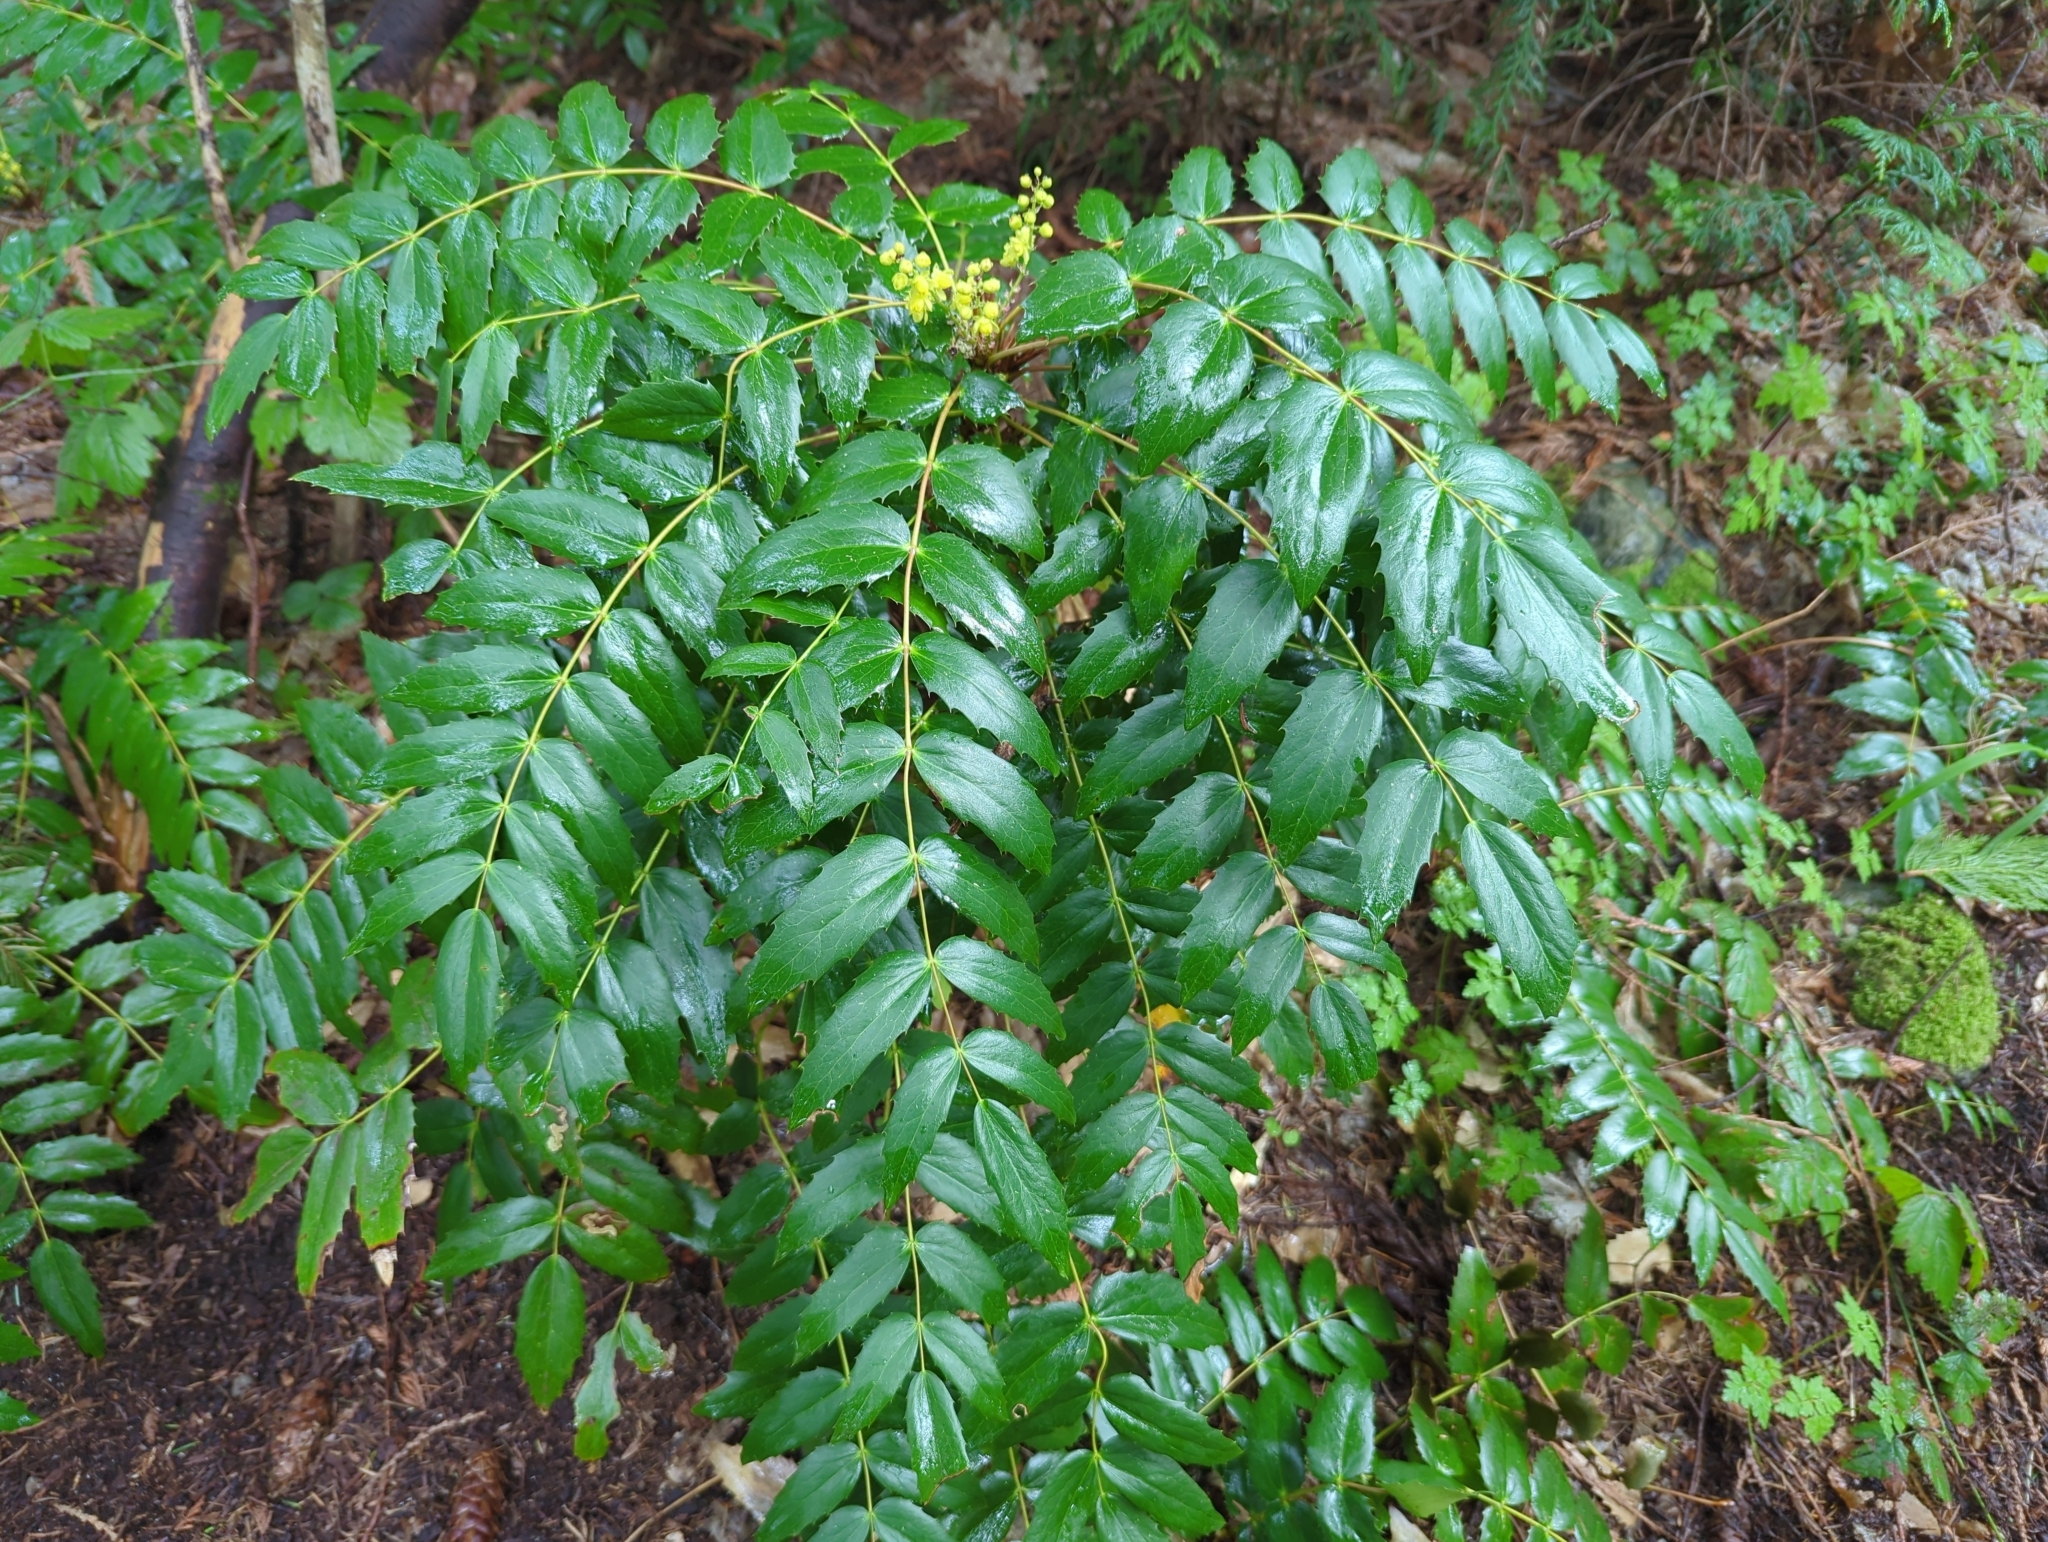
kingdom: Plantae
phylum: Tracheophyta
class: Magnoliopsida
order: Ranunculales
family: Berberidaceae
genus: Mahonia
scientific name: Mahonia nervosa
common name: Cascade oregon-grape
